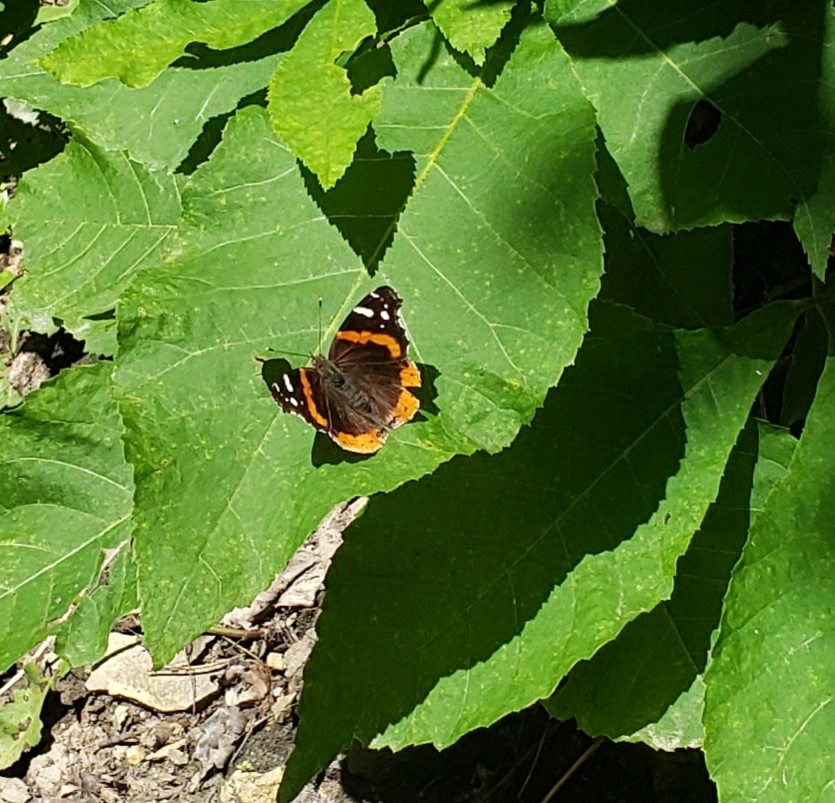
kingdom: Animalia
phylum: Arthropoda
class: Insecta
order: Lepidoptera
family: Nymphalidae
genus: Vanessa
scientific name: Vanessa atalanta
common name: Red admiral
